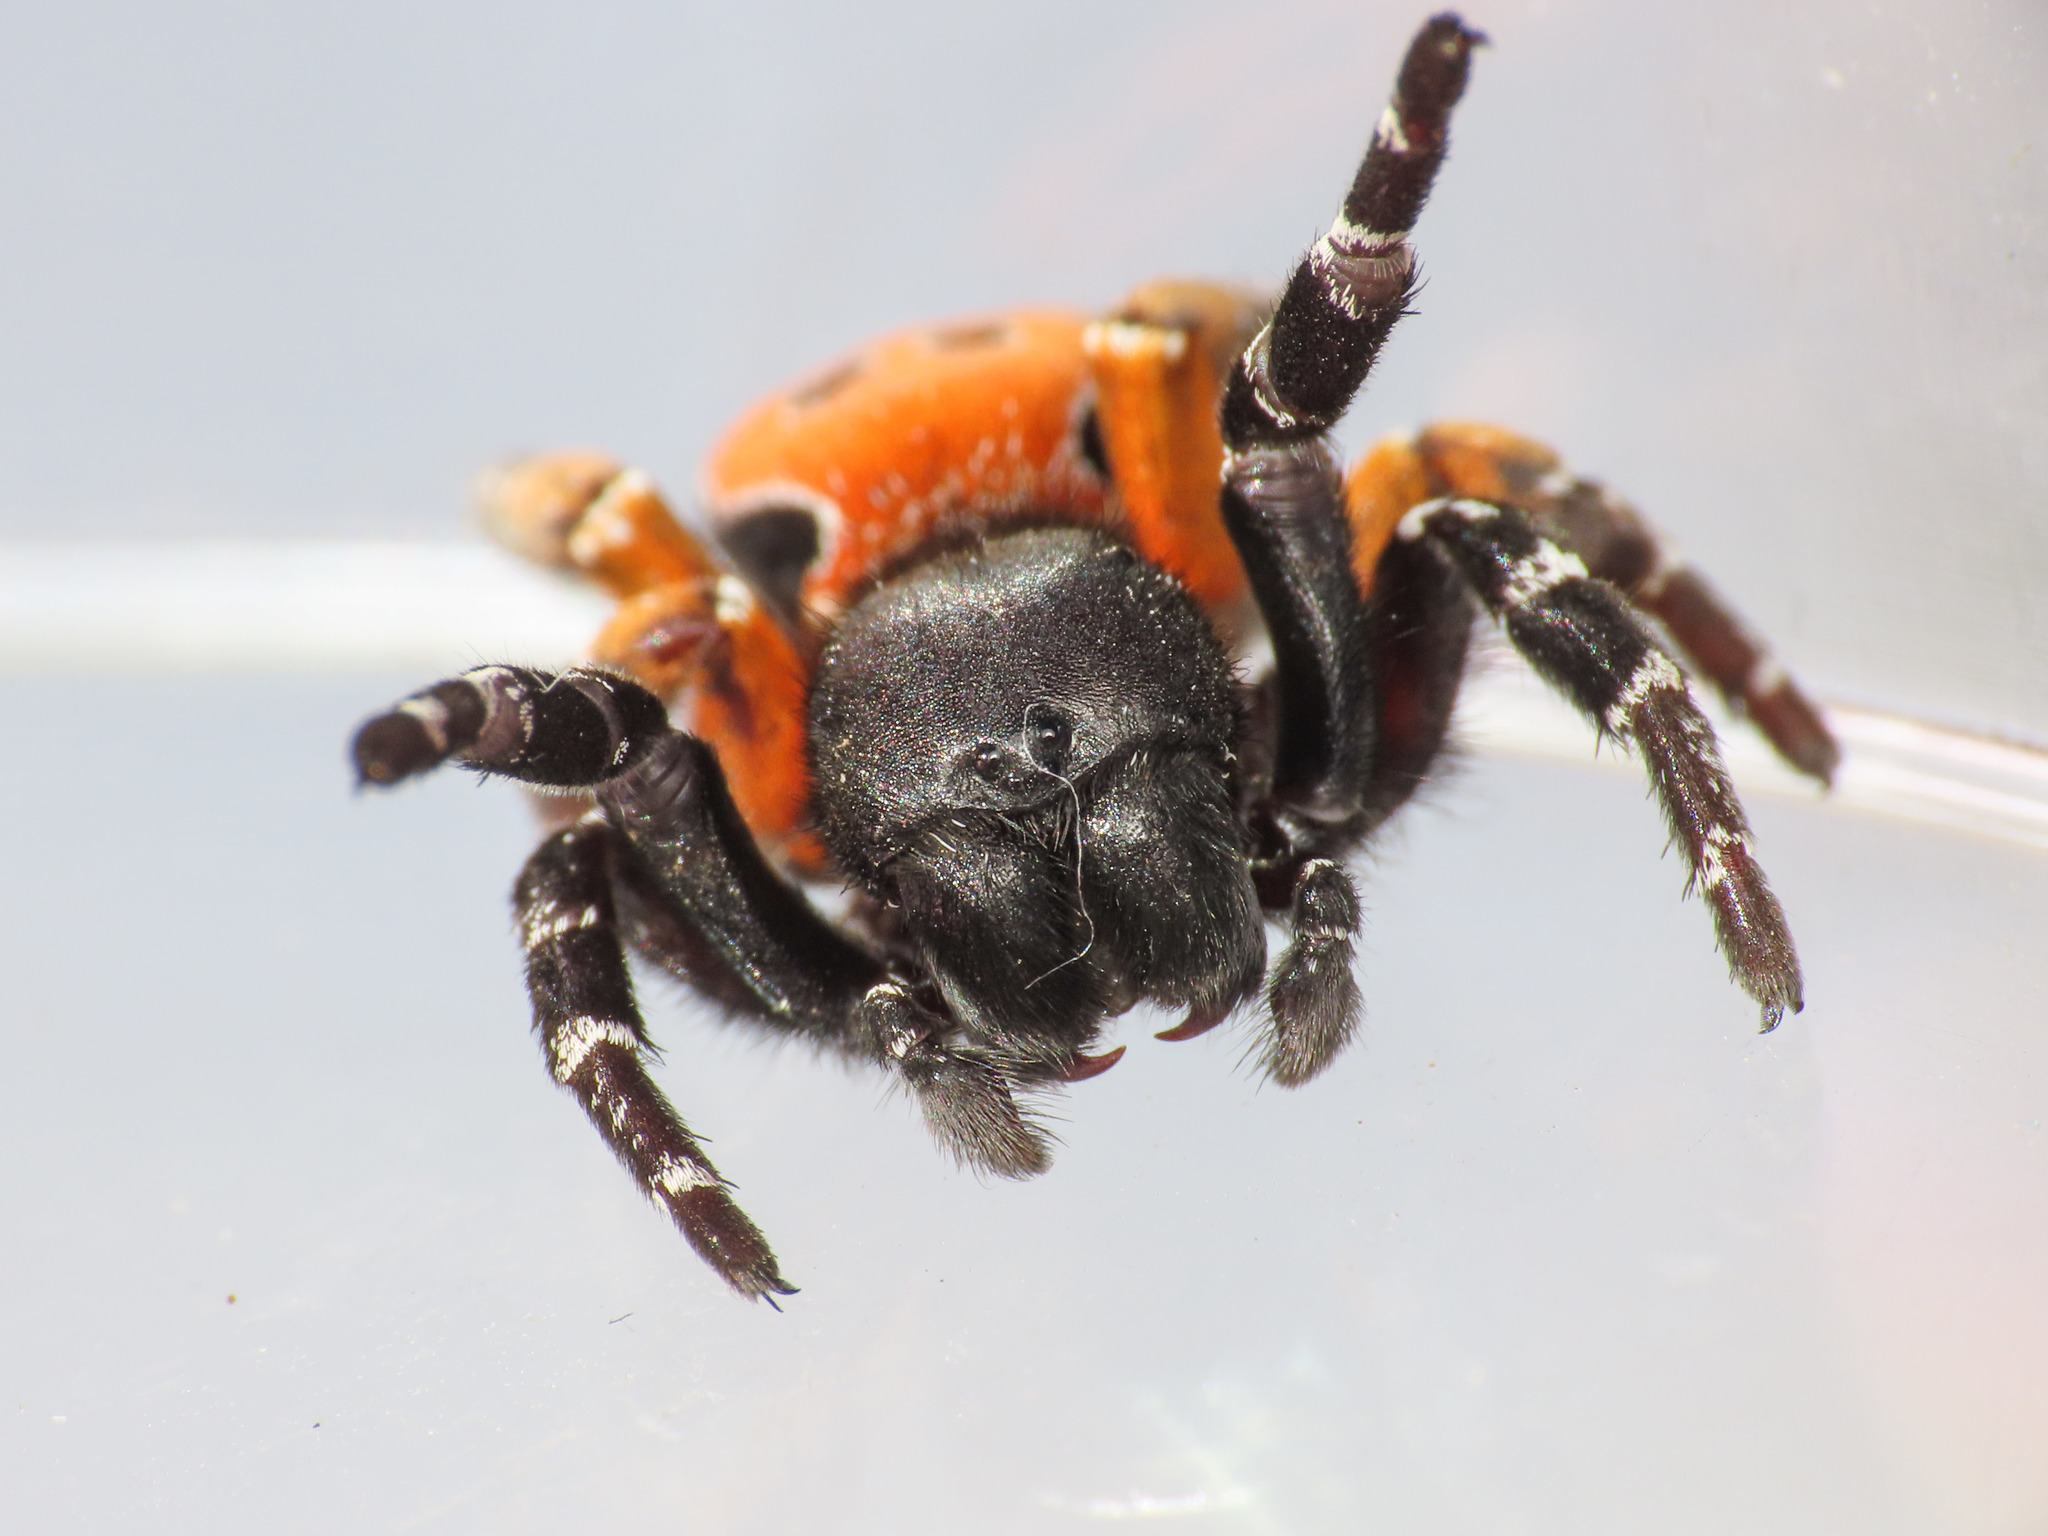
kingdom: Animalia
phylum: Arthropoda
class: Arachnida
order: Araneae
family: Eresidae
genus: Eresus
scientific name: Eresus kollari
